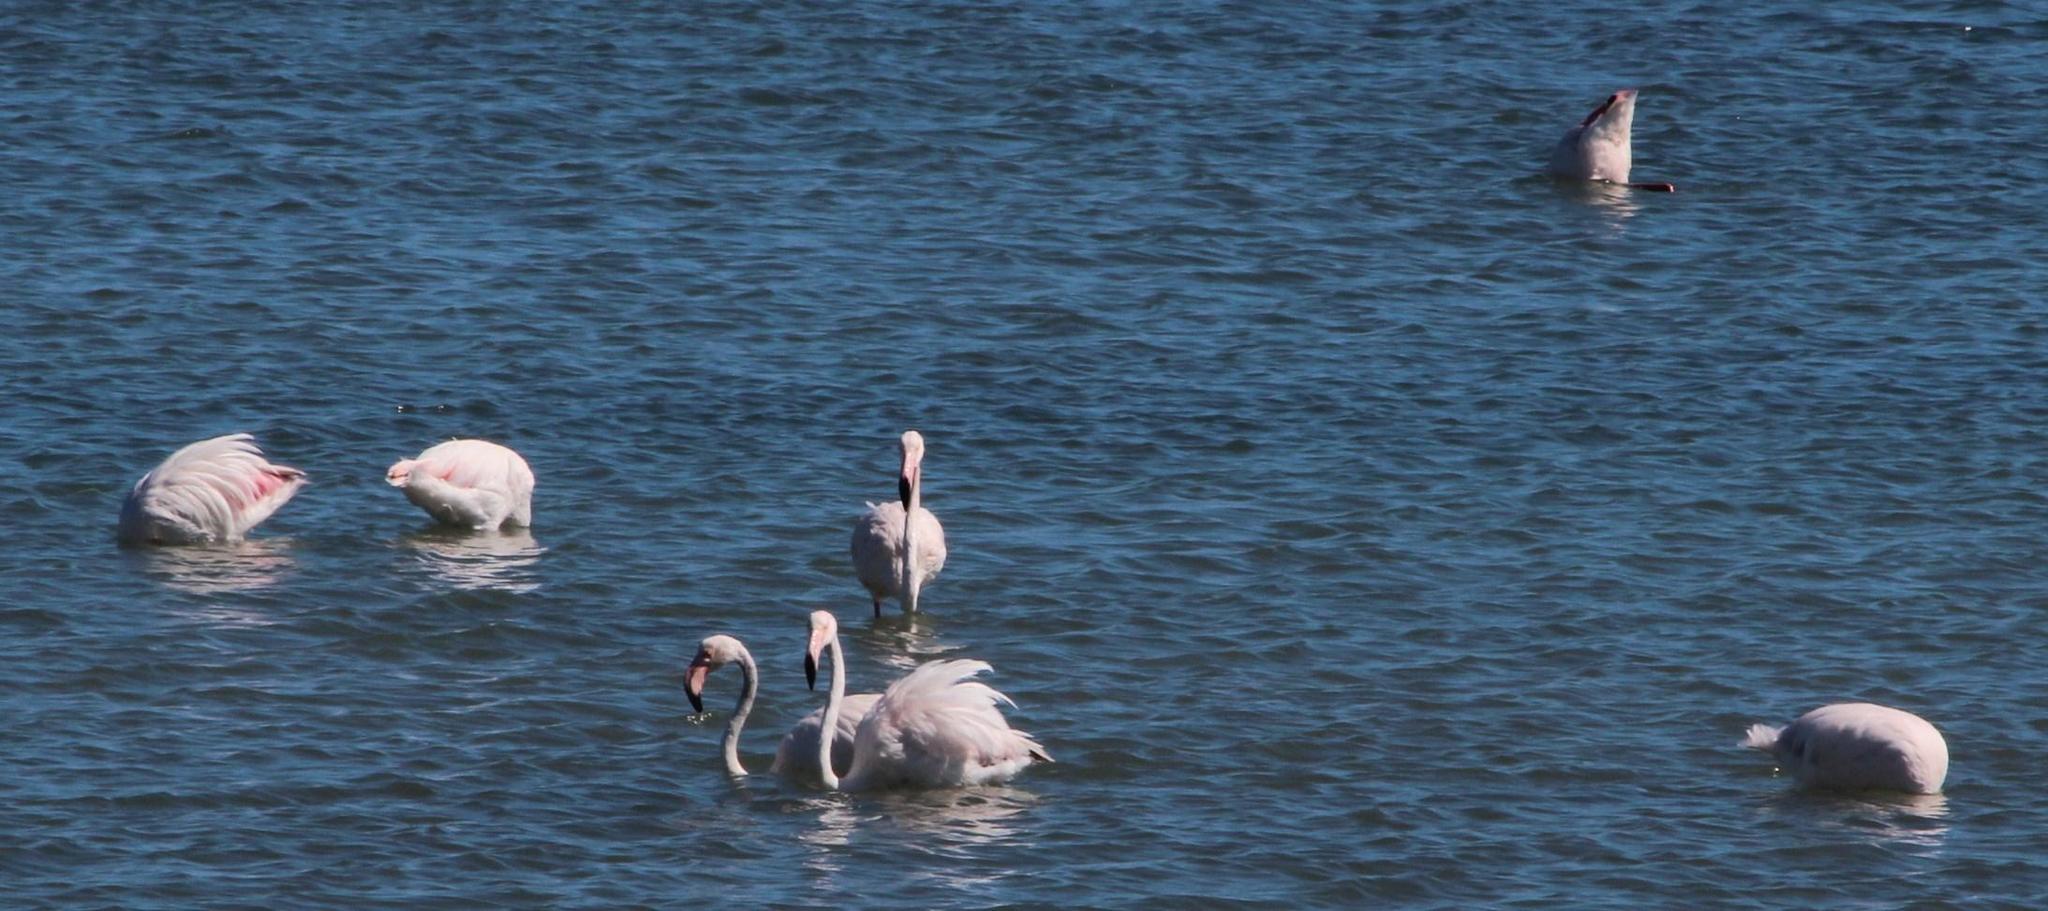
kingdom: Animalia
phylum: Chordata
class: Aves
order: Phoenicopteriformes
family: Phoenicopteridae
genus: Phoenicopterus
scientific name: Phoenicopterus roseus
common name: Greater flamingo
